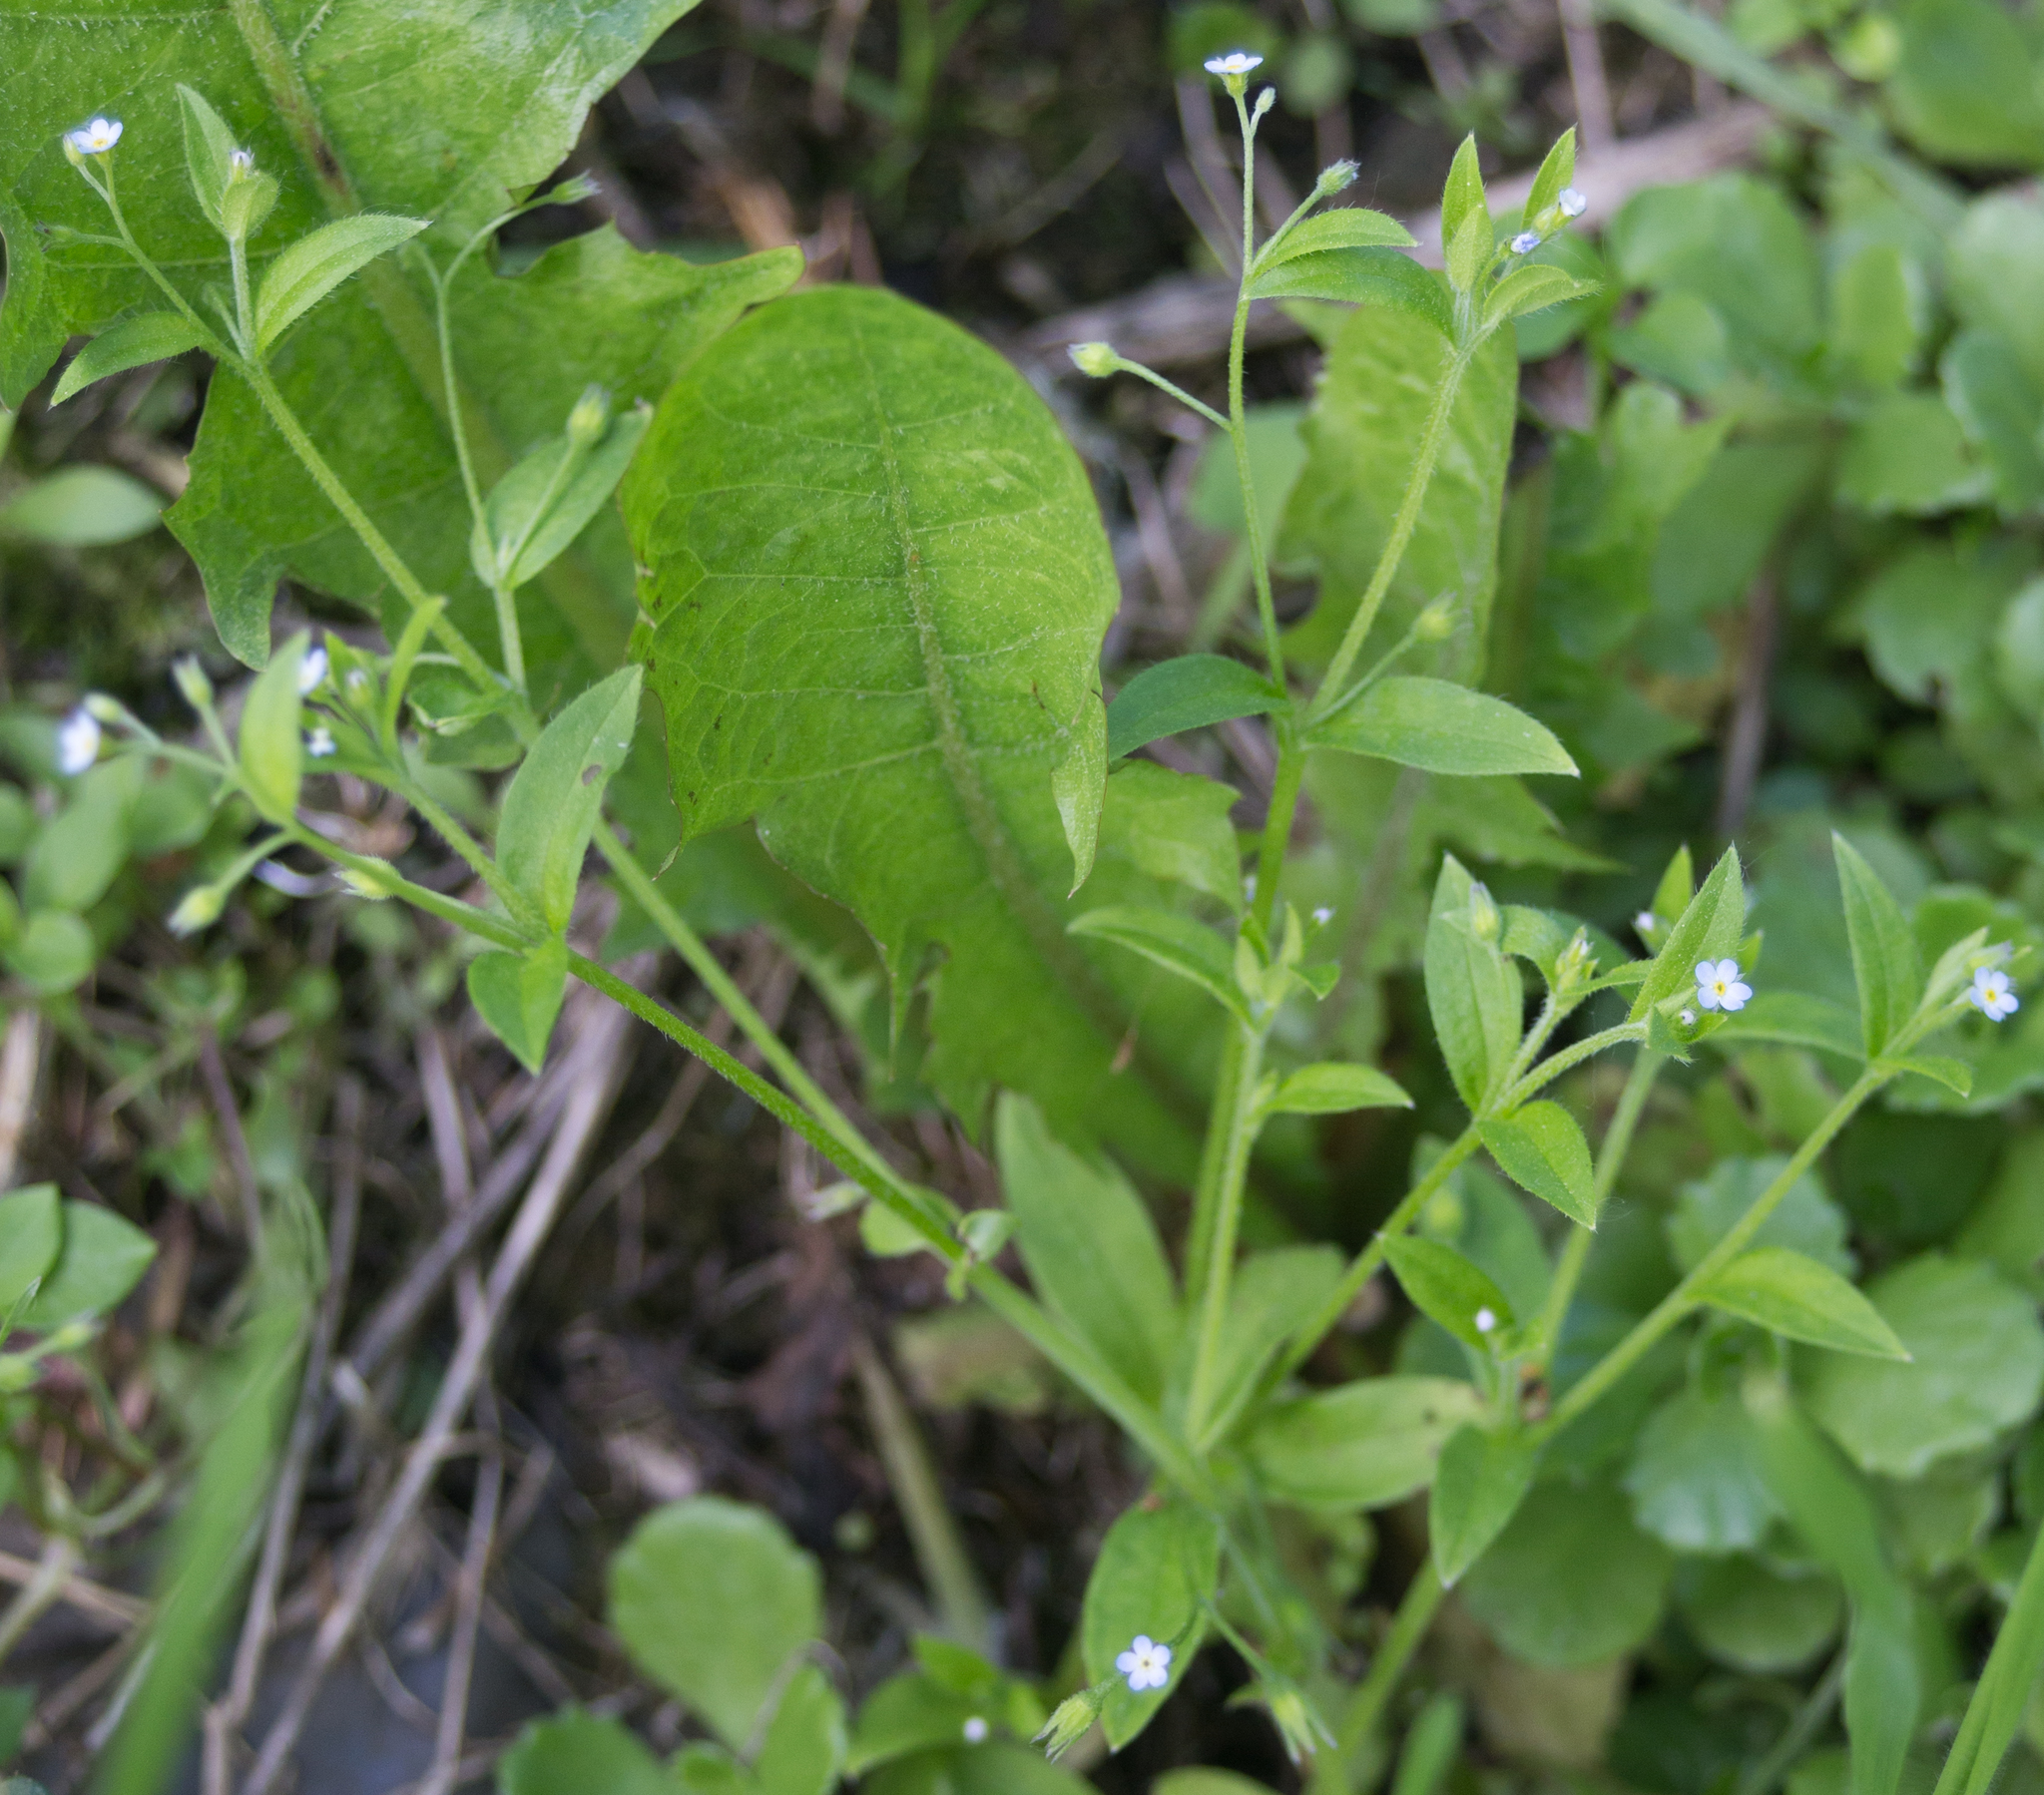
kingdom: Plantae
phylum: Tracheophyta
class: Magnoliopsida
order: Boraginales
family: Boraginaceae
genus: Myosotis
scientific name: Myosotis sparsiflora
